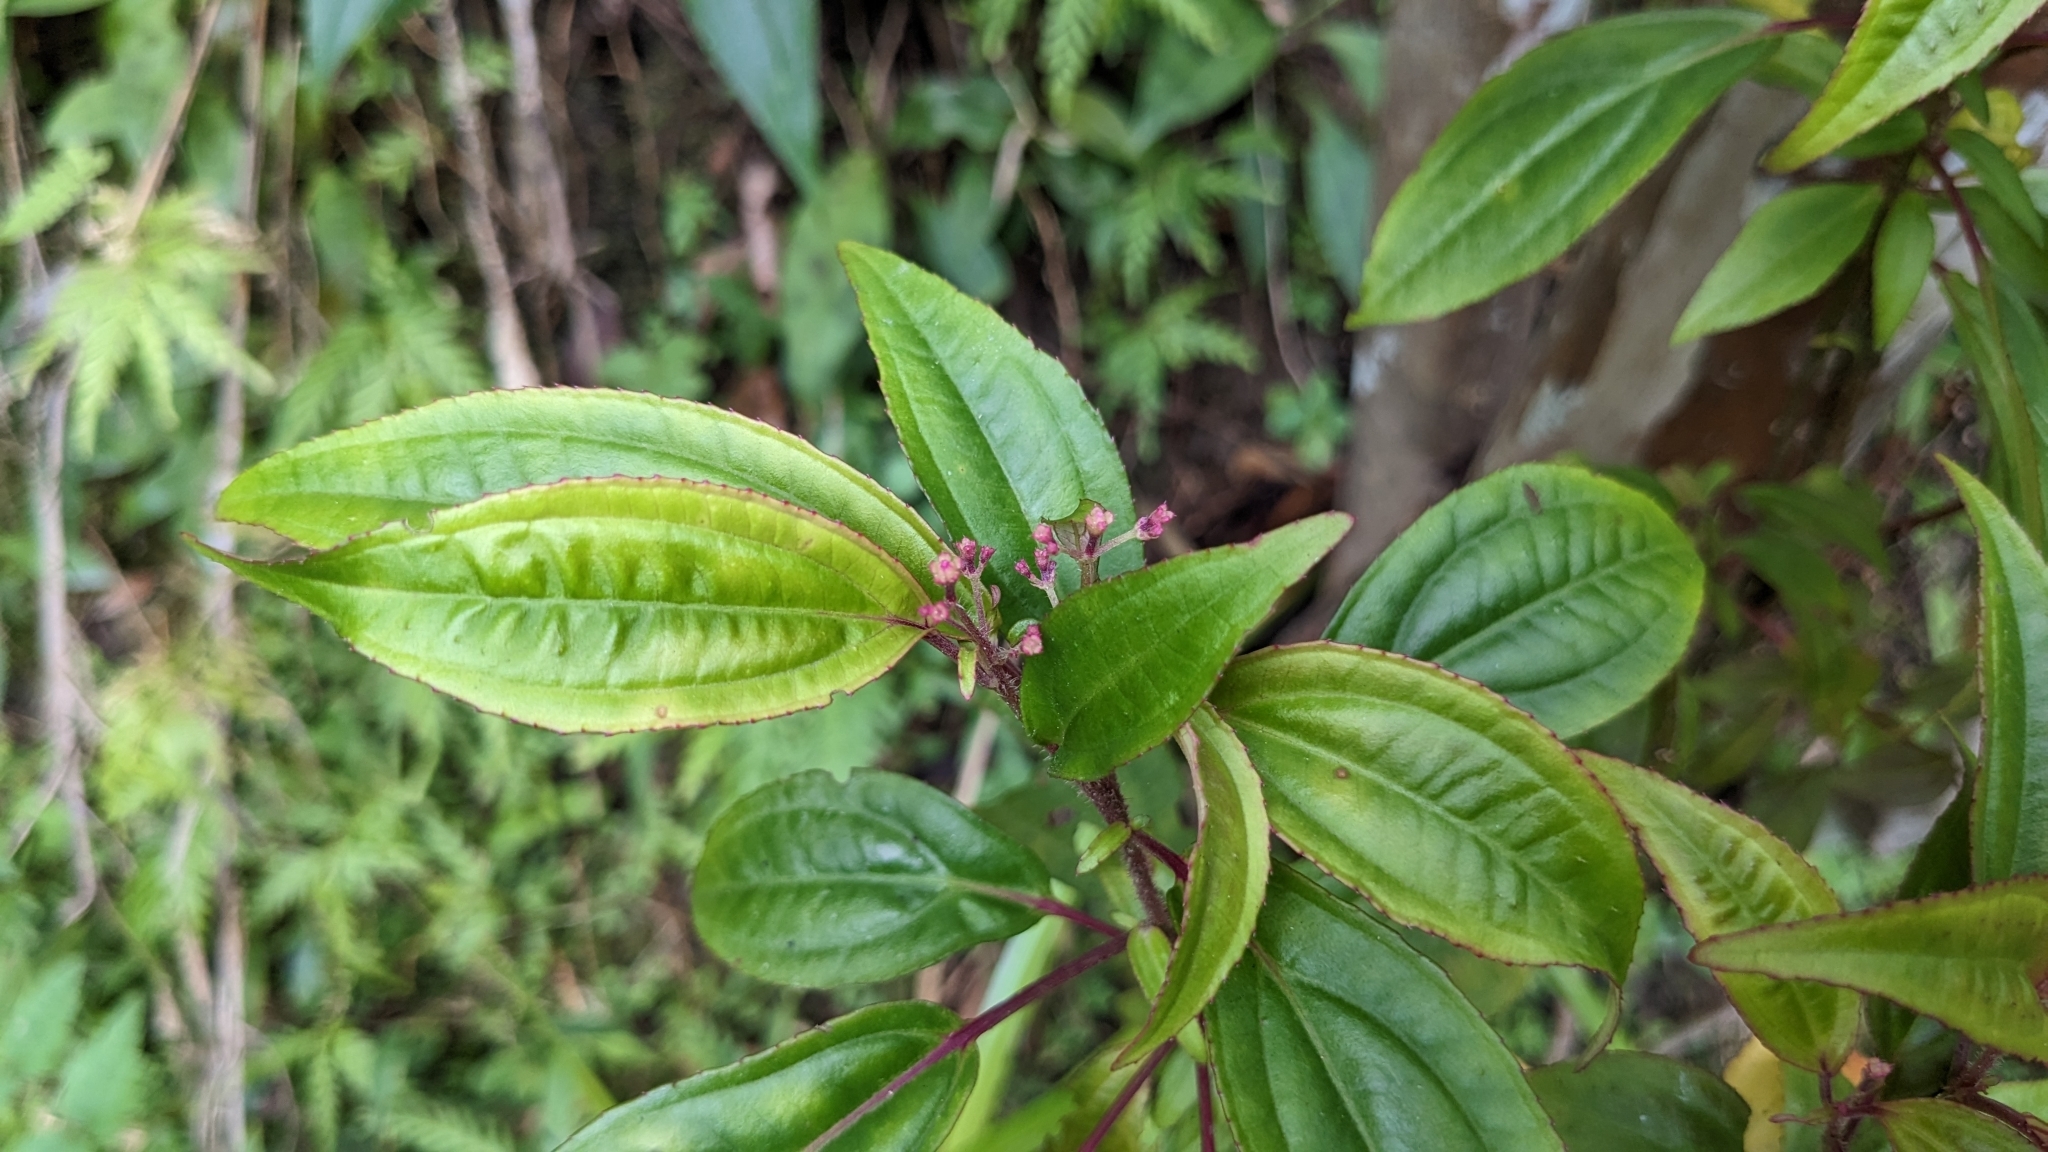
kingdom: Plantae
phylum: Tracheophyta
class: Magnoliopsida
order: Myrtales
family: Melastomataceae
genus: Bredia
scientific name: Bredia oldhamii
